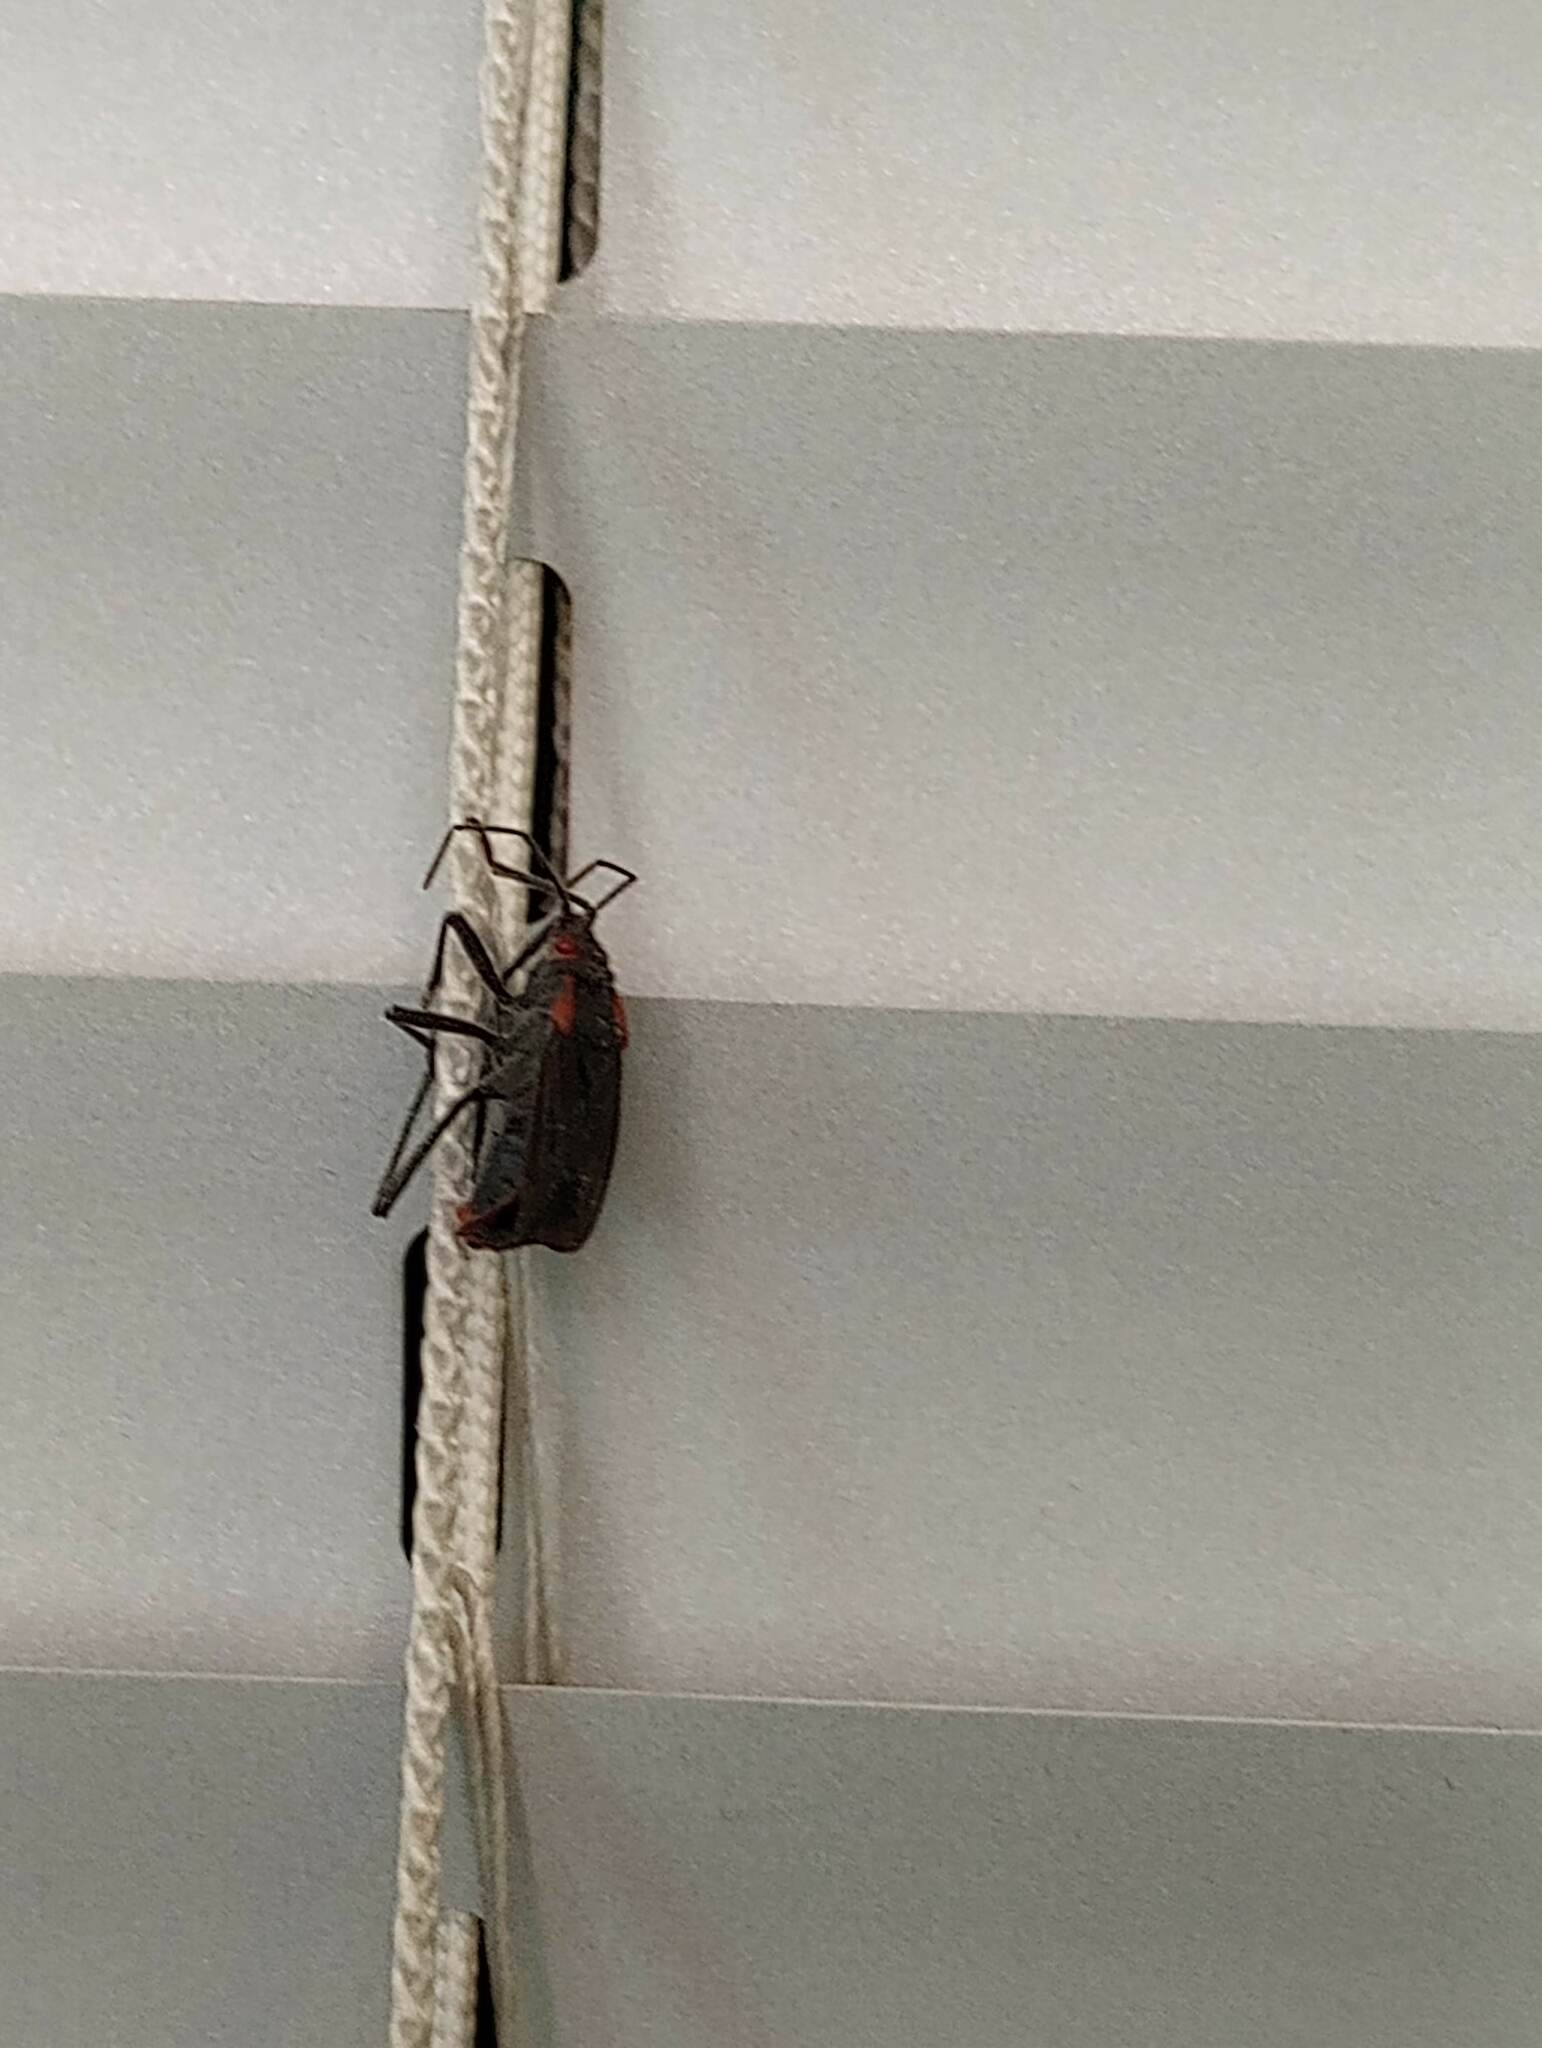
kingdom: Animalia
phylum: Arthropoda
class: Insecta
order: Hemiptera
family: Rhopalidae
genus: Jadera
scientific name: Jadera haematoloma
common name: Red-shouldered bug
